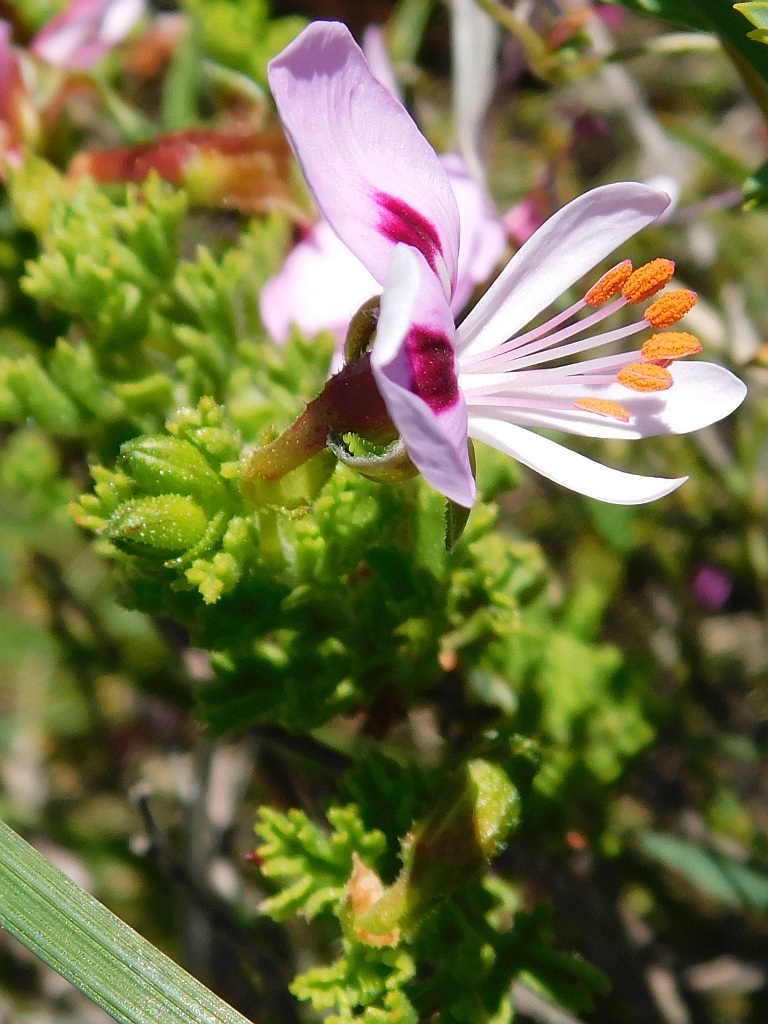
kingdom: Plantae
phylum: Tracheophyta
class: Magnoliopsida
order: Geraniales
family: Geraniaceae
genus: Pelargonium
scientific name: Pelargonium crispum
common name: Crisped-leaf pelargonium
